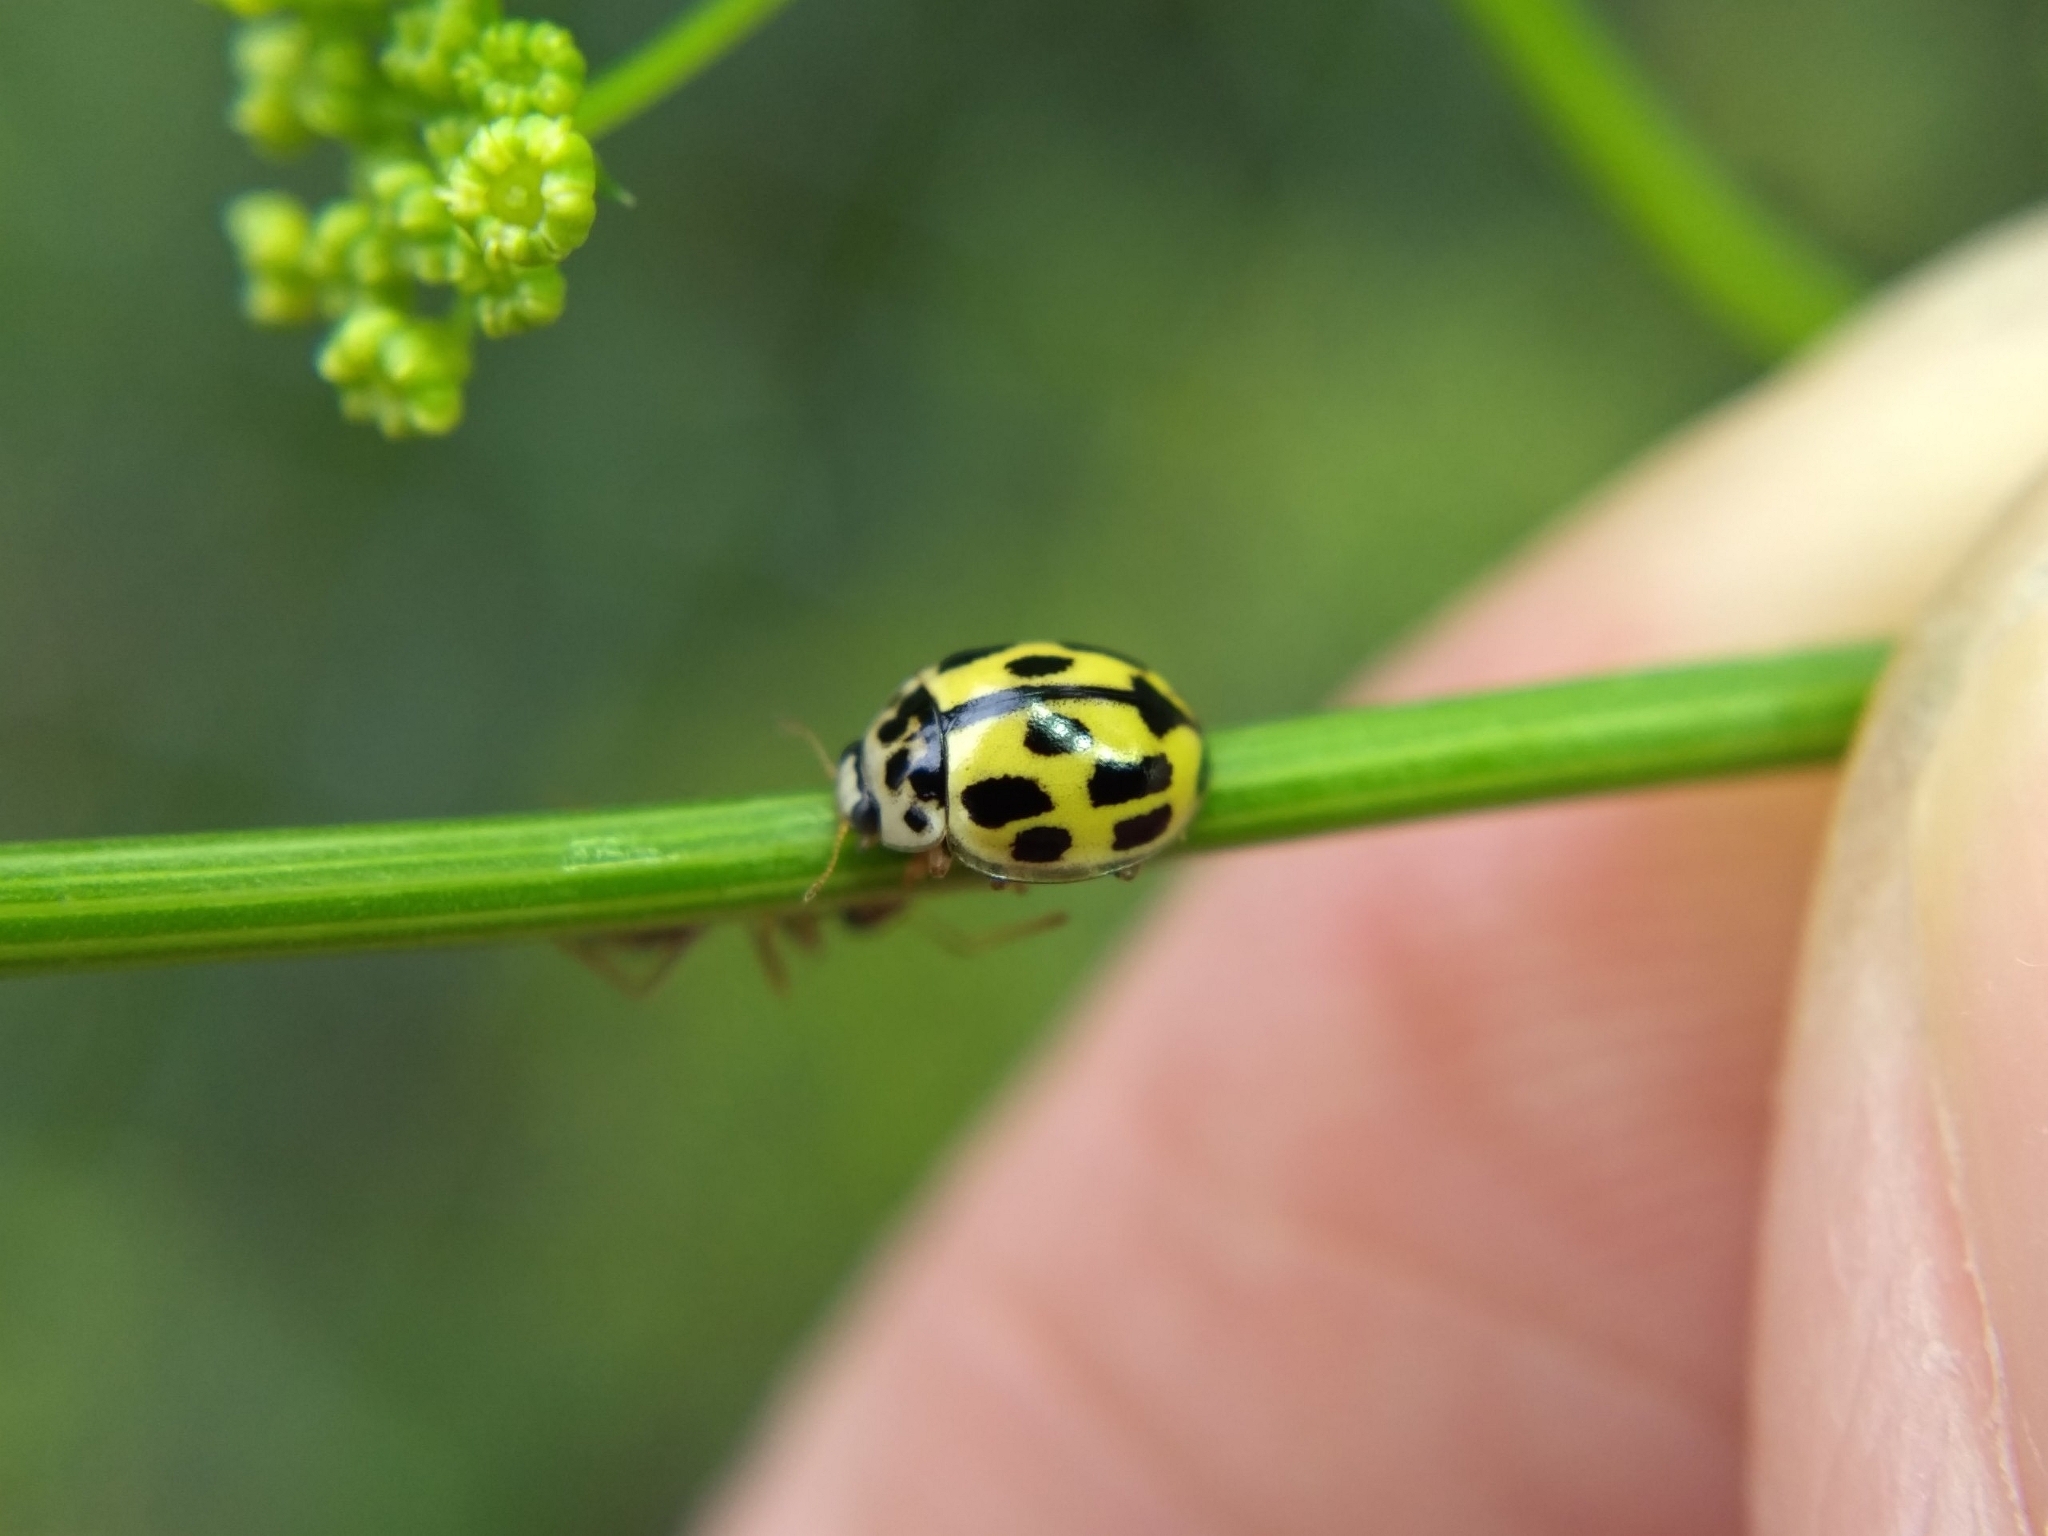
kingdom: Animalia
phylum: Arthropoda
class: Insecta
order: Coleoptera
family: Coccinellidae
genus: Propylaea
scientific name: Propylaea quatuordecimpunctata
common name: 14-spotted ladybird beetle
